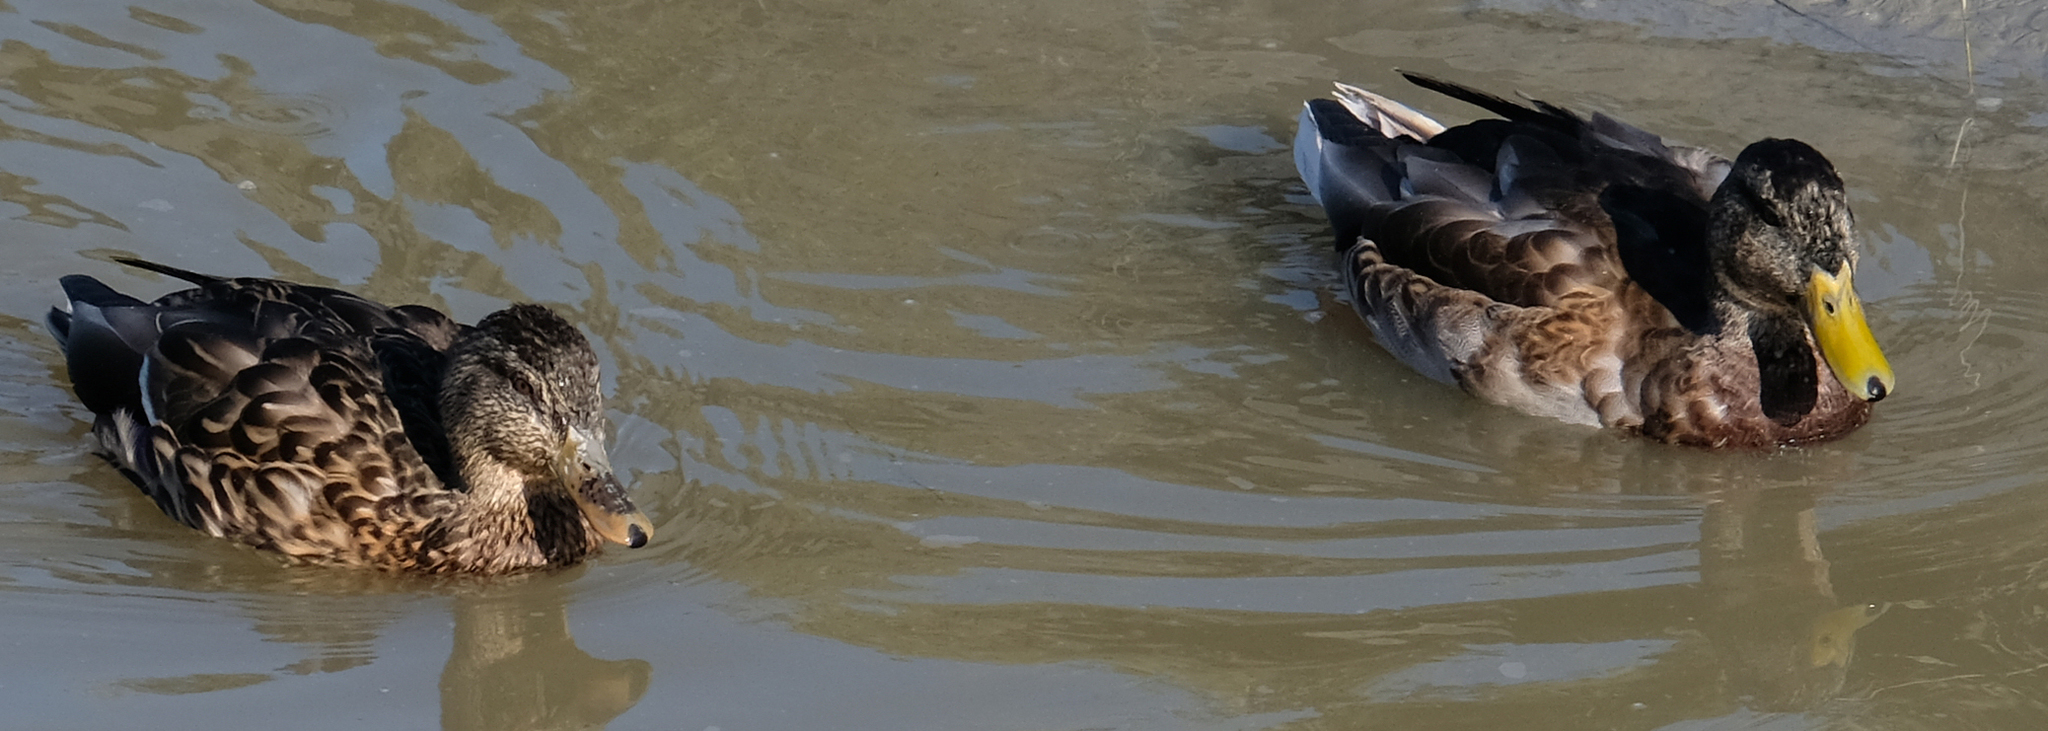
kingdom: Animalia
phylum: Chordata
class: Aves
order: Anseriformes
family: Anatidae
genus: Anas
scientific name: Anas platyrhynchos
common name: Mallard
